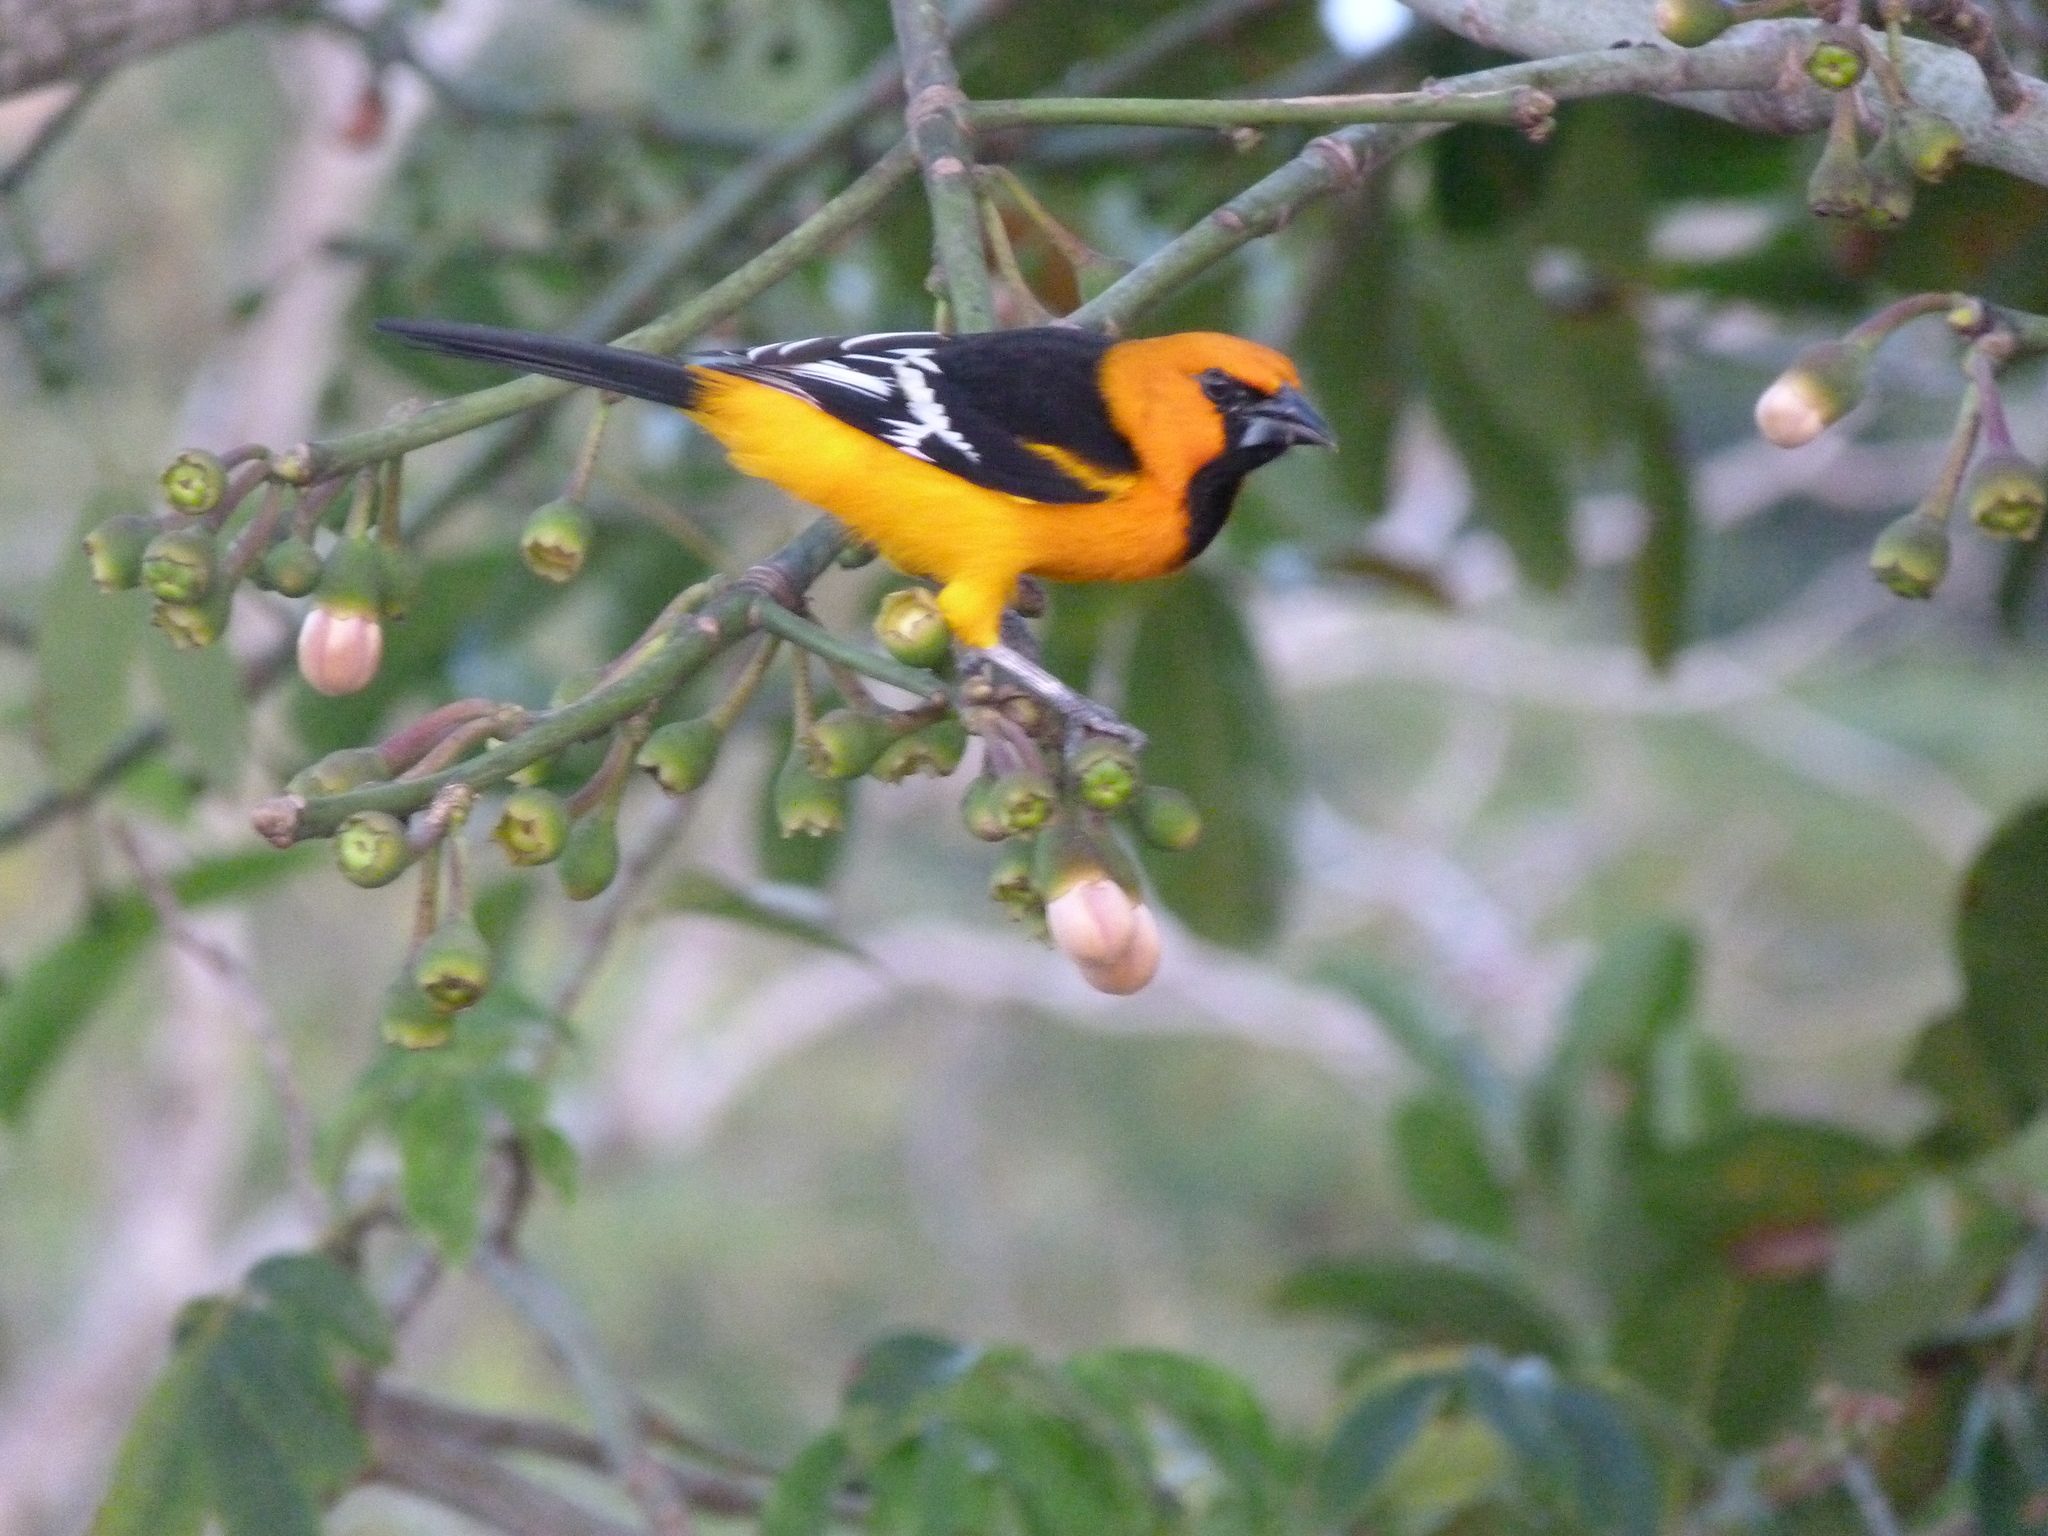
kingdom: Animalia
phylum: Chordata
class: Aves
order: Passeriformes
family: Icteridae
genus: Icterus
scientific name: Icterus gularis
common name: Altamira oriole
